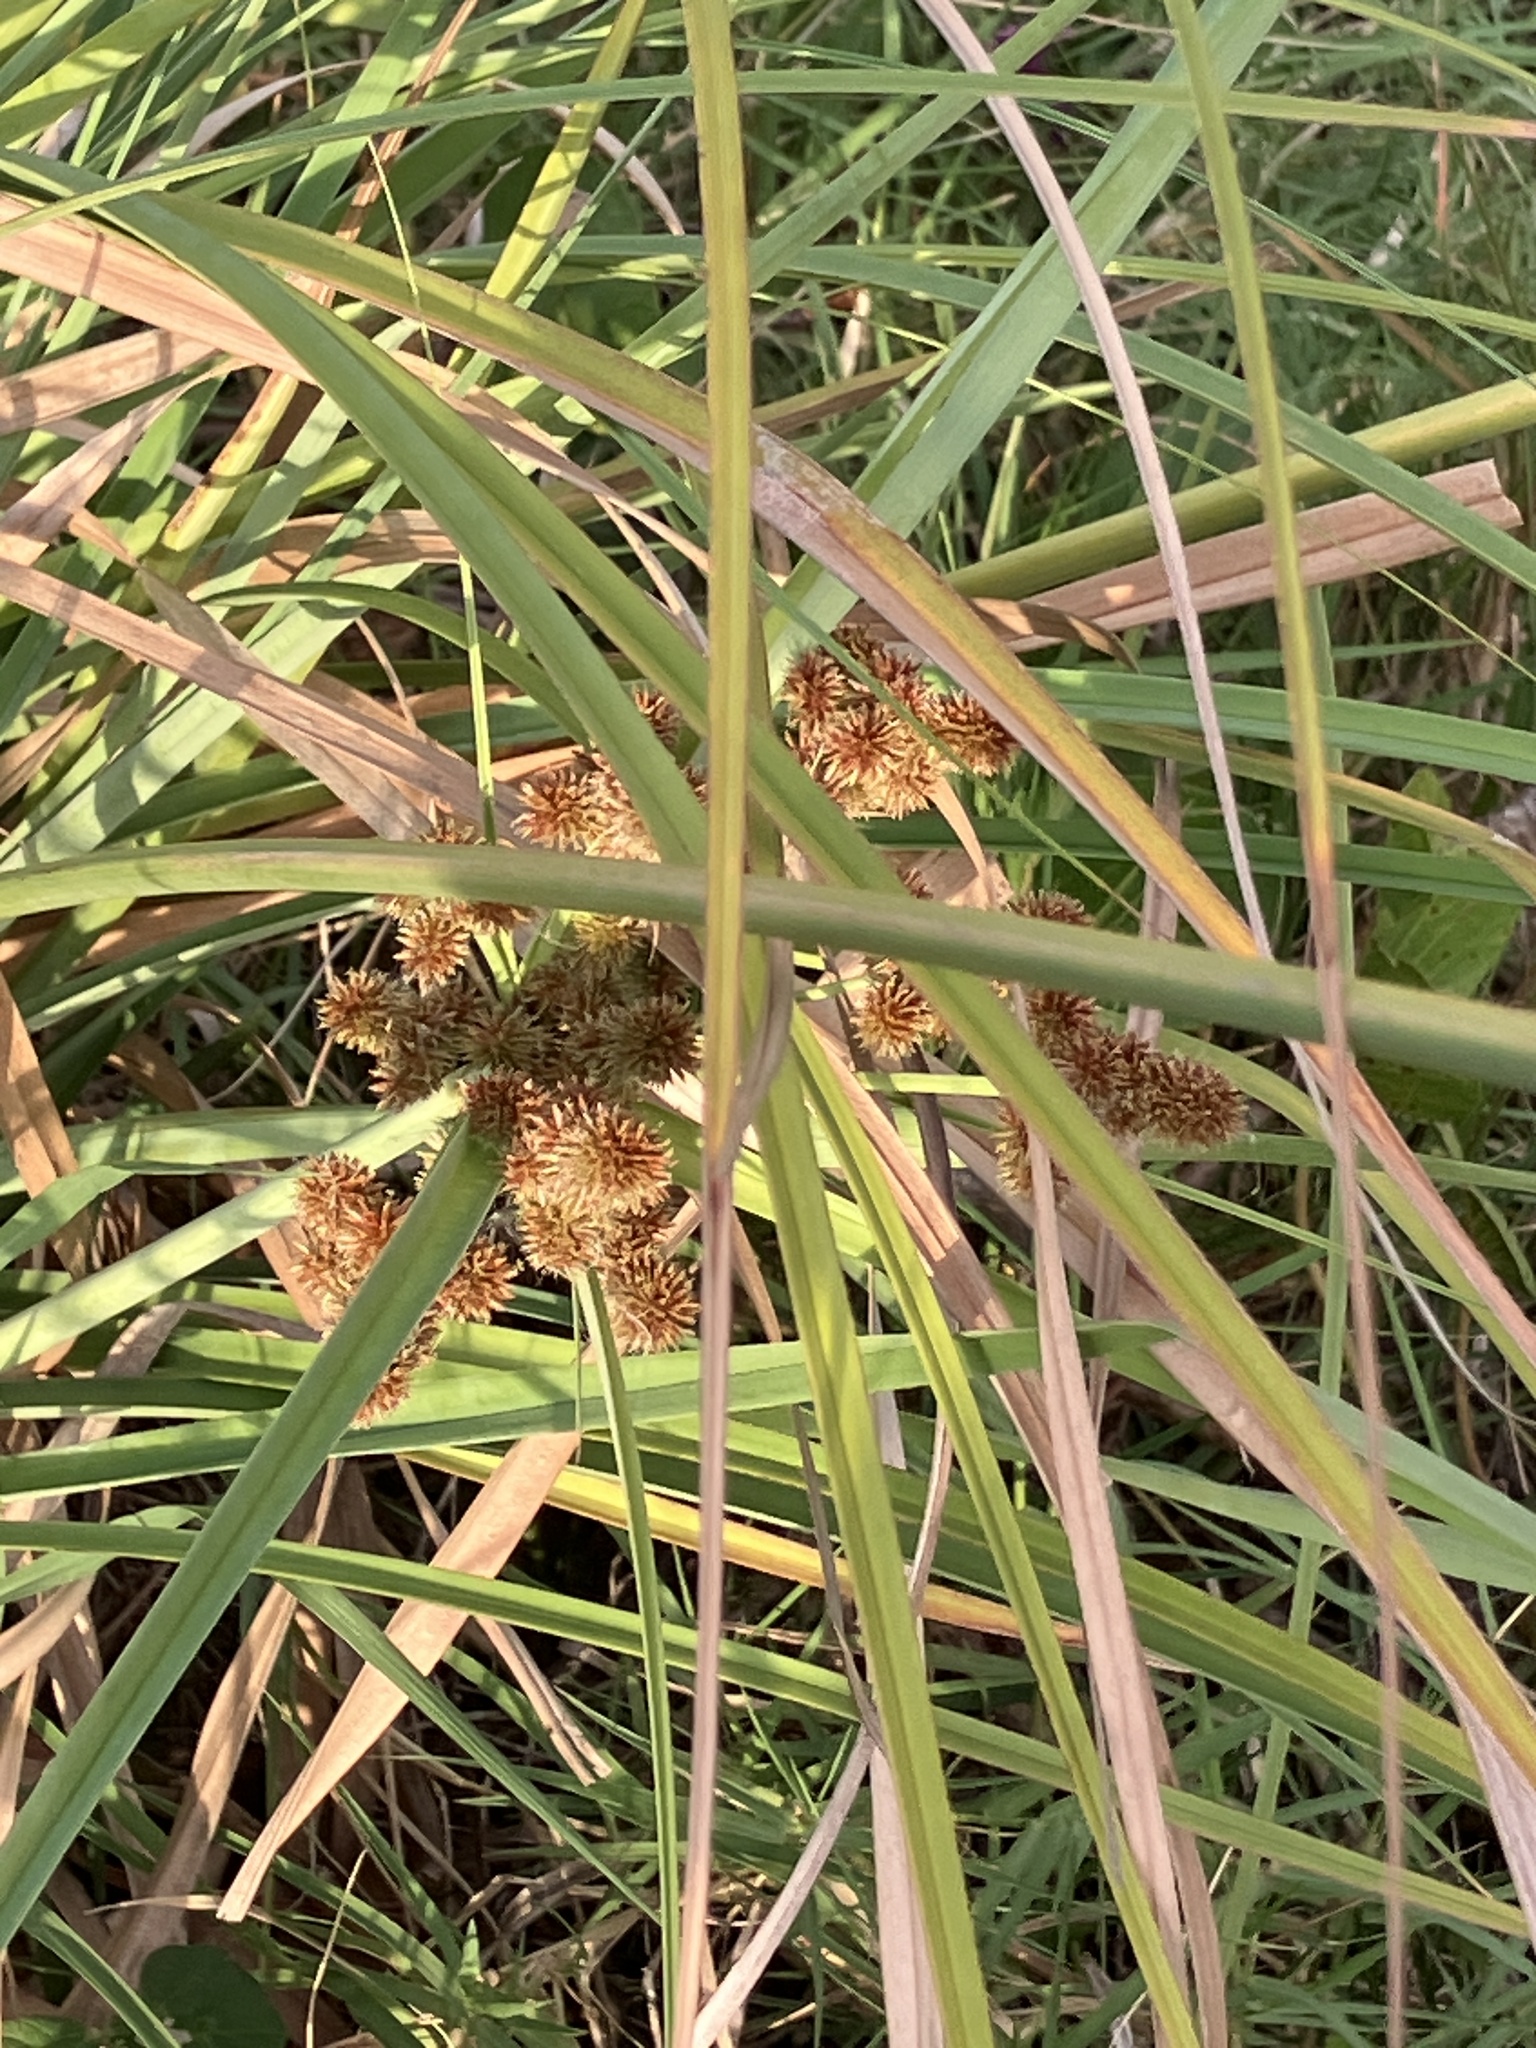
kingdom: Plantae
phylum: Tracheophyta
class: Liliopsida
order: Poales
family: Cyperaceae
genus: Cyperus
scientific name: Cyperus ligularis
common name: Swamp flat sedge
